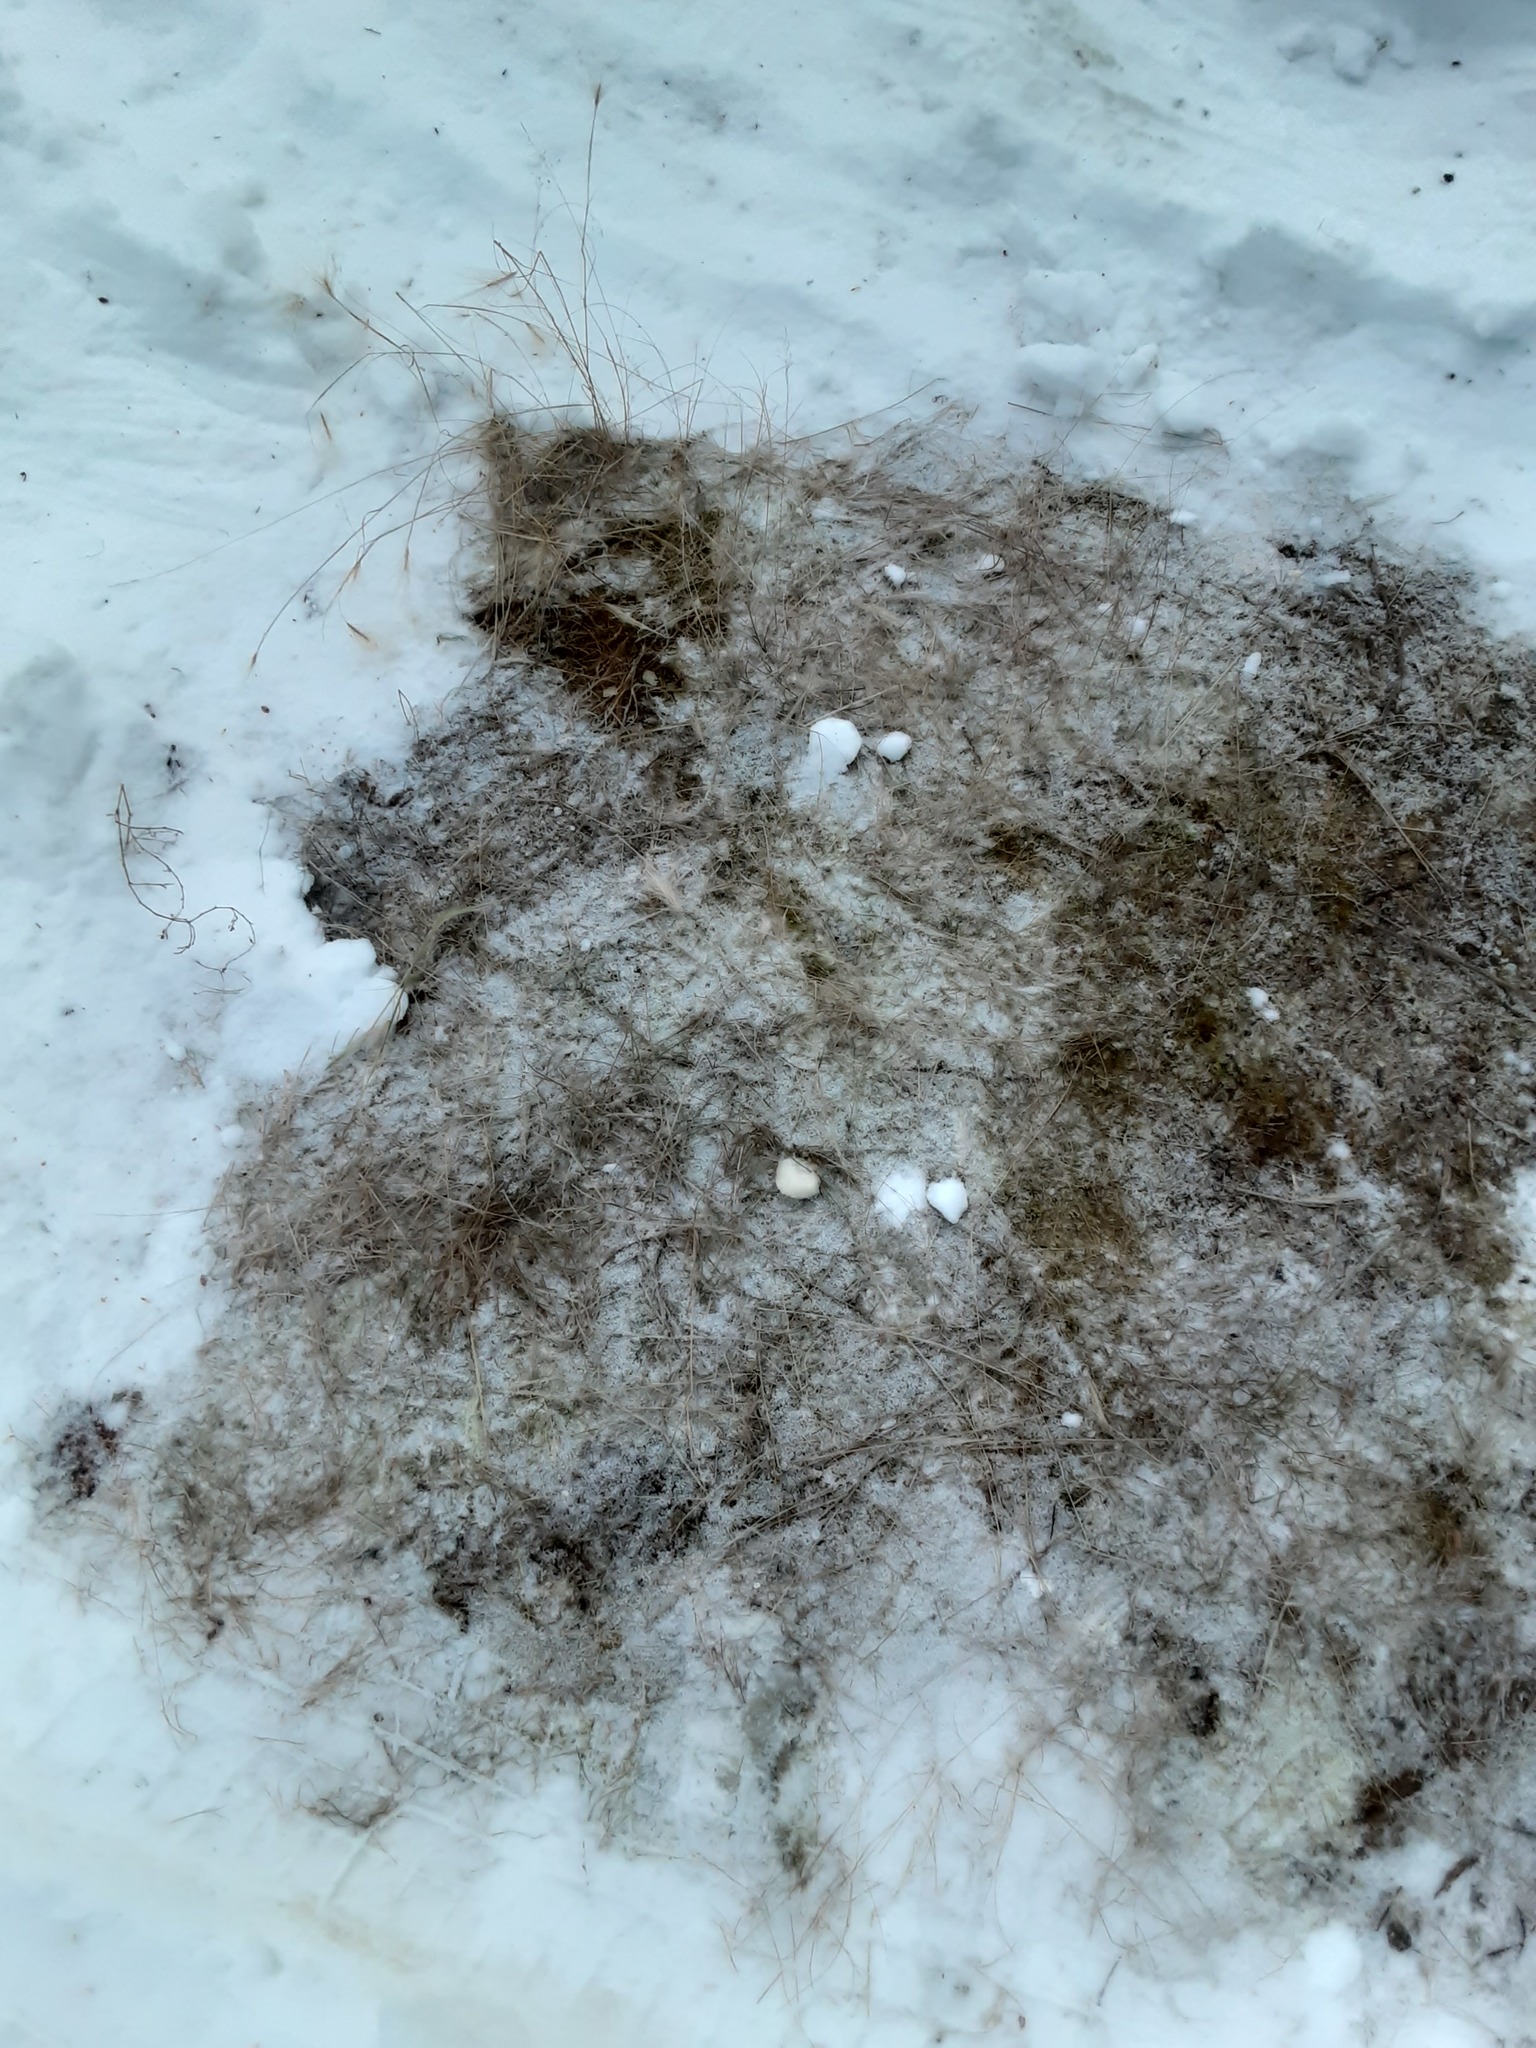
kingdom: Plantae
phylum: Tracheophyta
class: Liliopsida
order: Poales
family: Poaceae
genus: Hordeum
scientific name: Hordeum jubatum
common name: Foxtail barley
